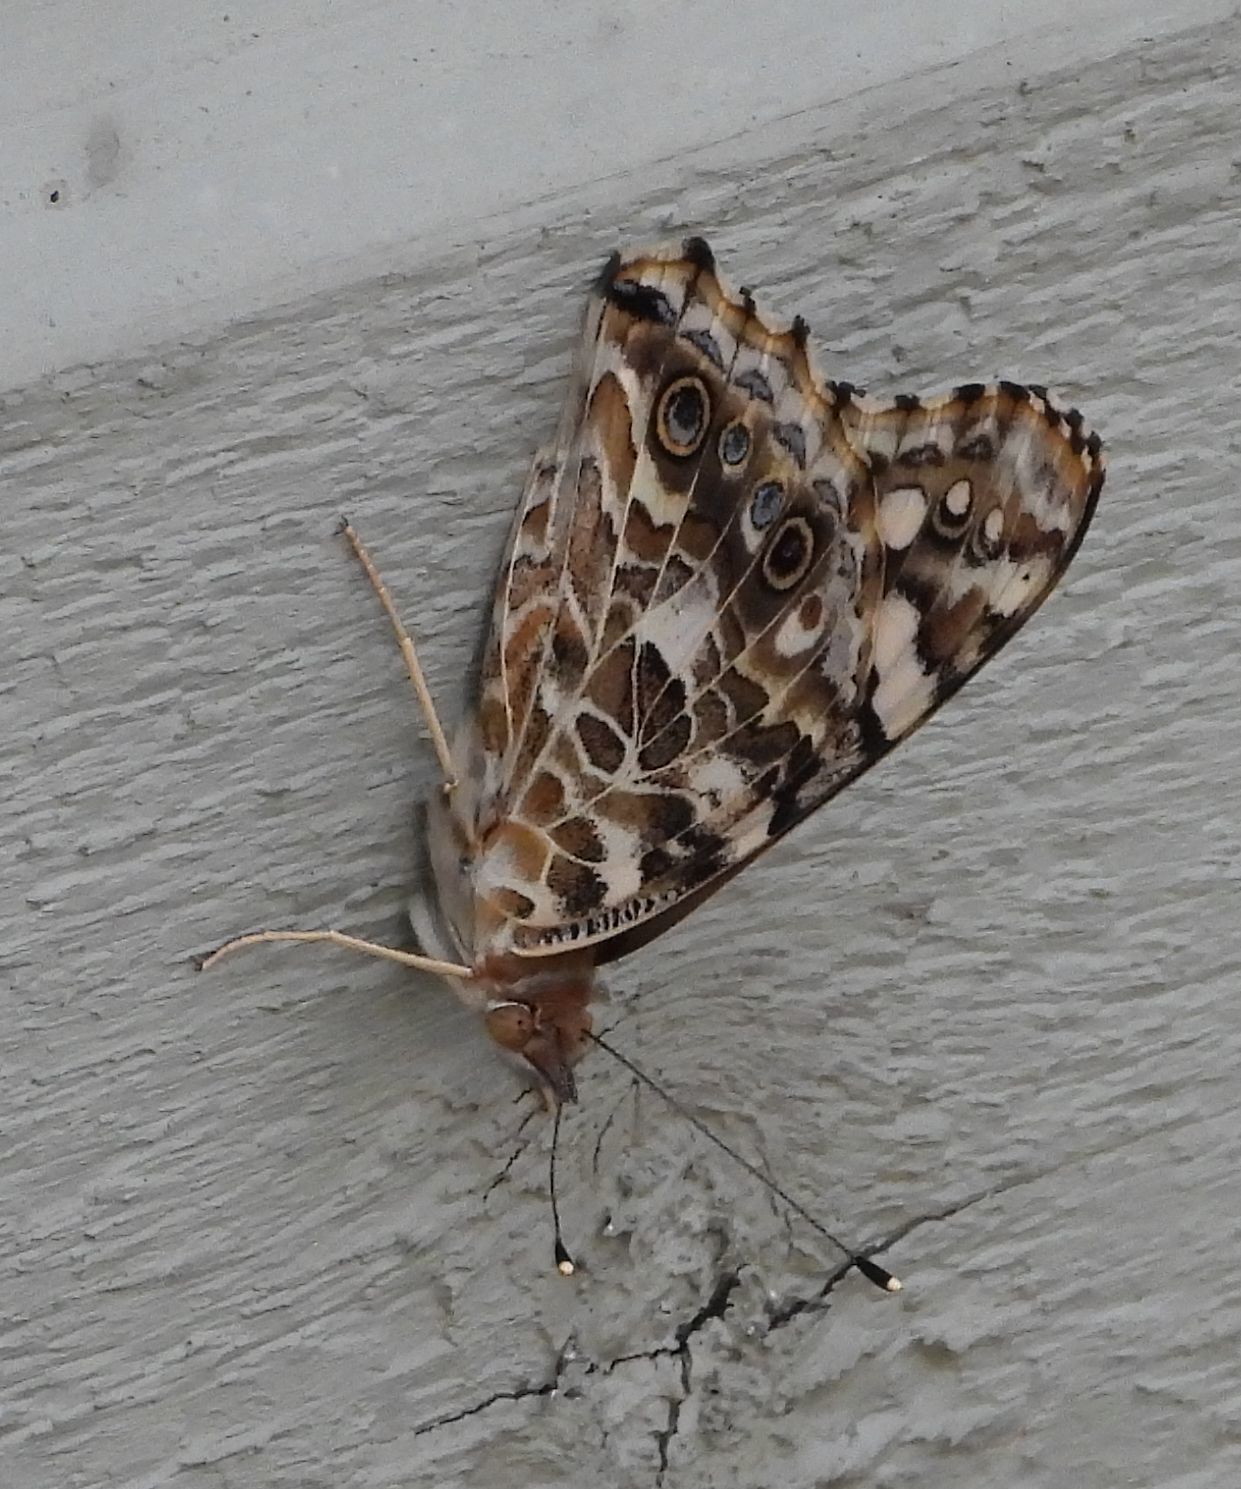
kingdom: Animalia
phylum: Arthropoda
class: Insecta
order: Lepidoptera
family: Nymphalidae
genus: Vanessa
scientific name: Vanessa cardui
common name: Painted lady
